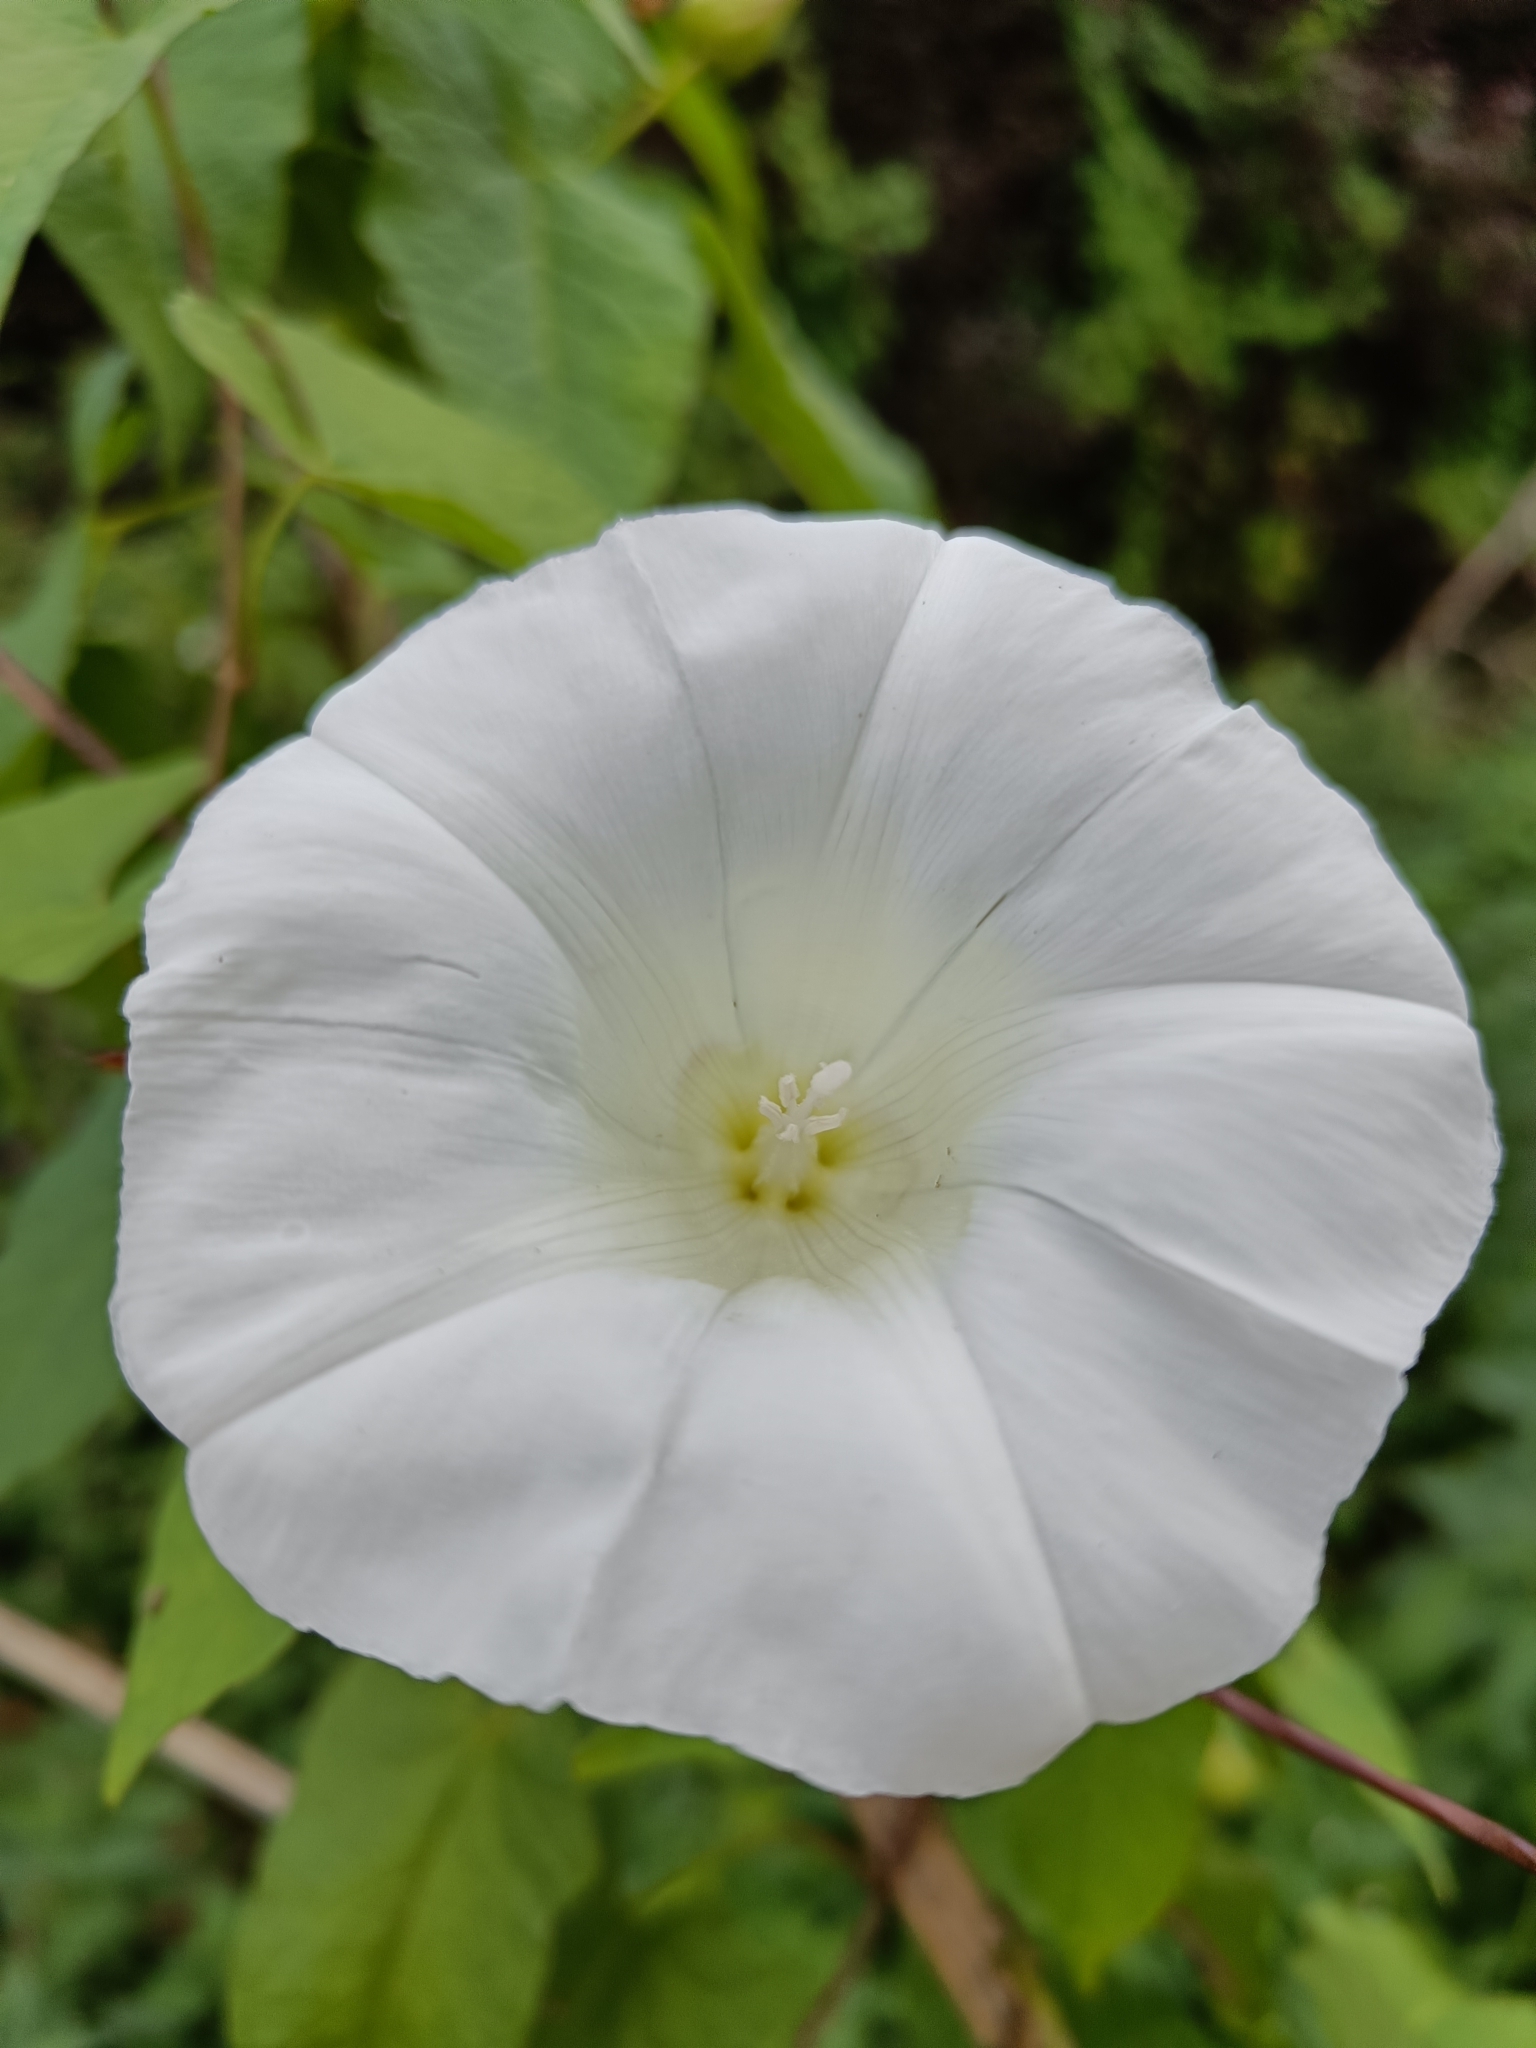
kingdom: Plantae
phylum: Tracheophyta
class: Magnoliopsida
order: Solanales
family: Convolvulaceae
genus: Calystegia
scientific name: Calystegia silvatica
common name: Large bindweed
